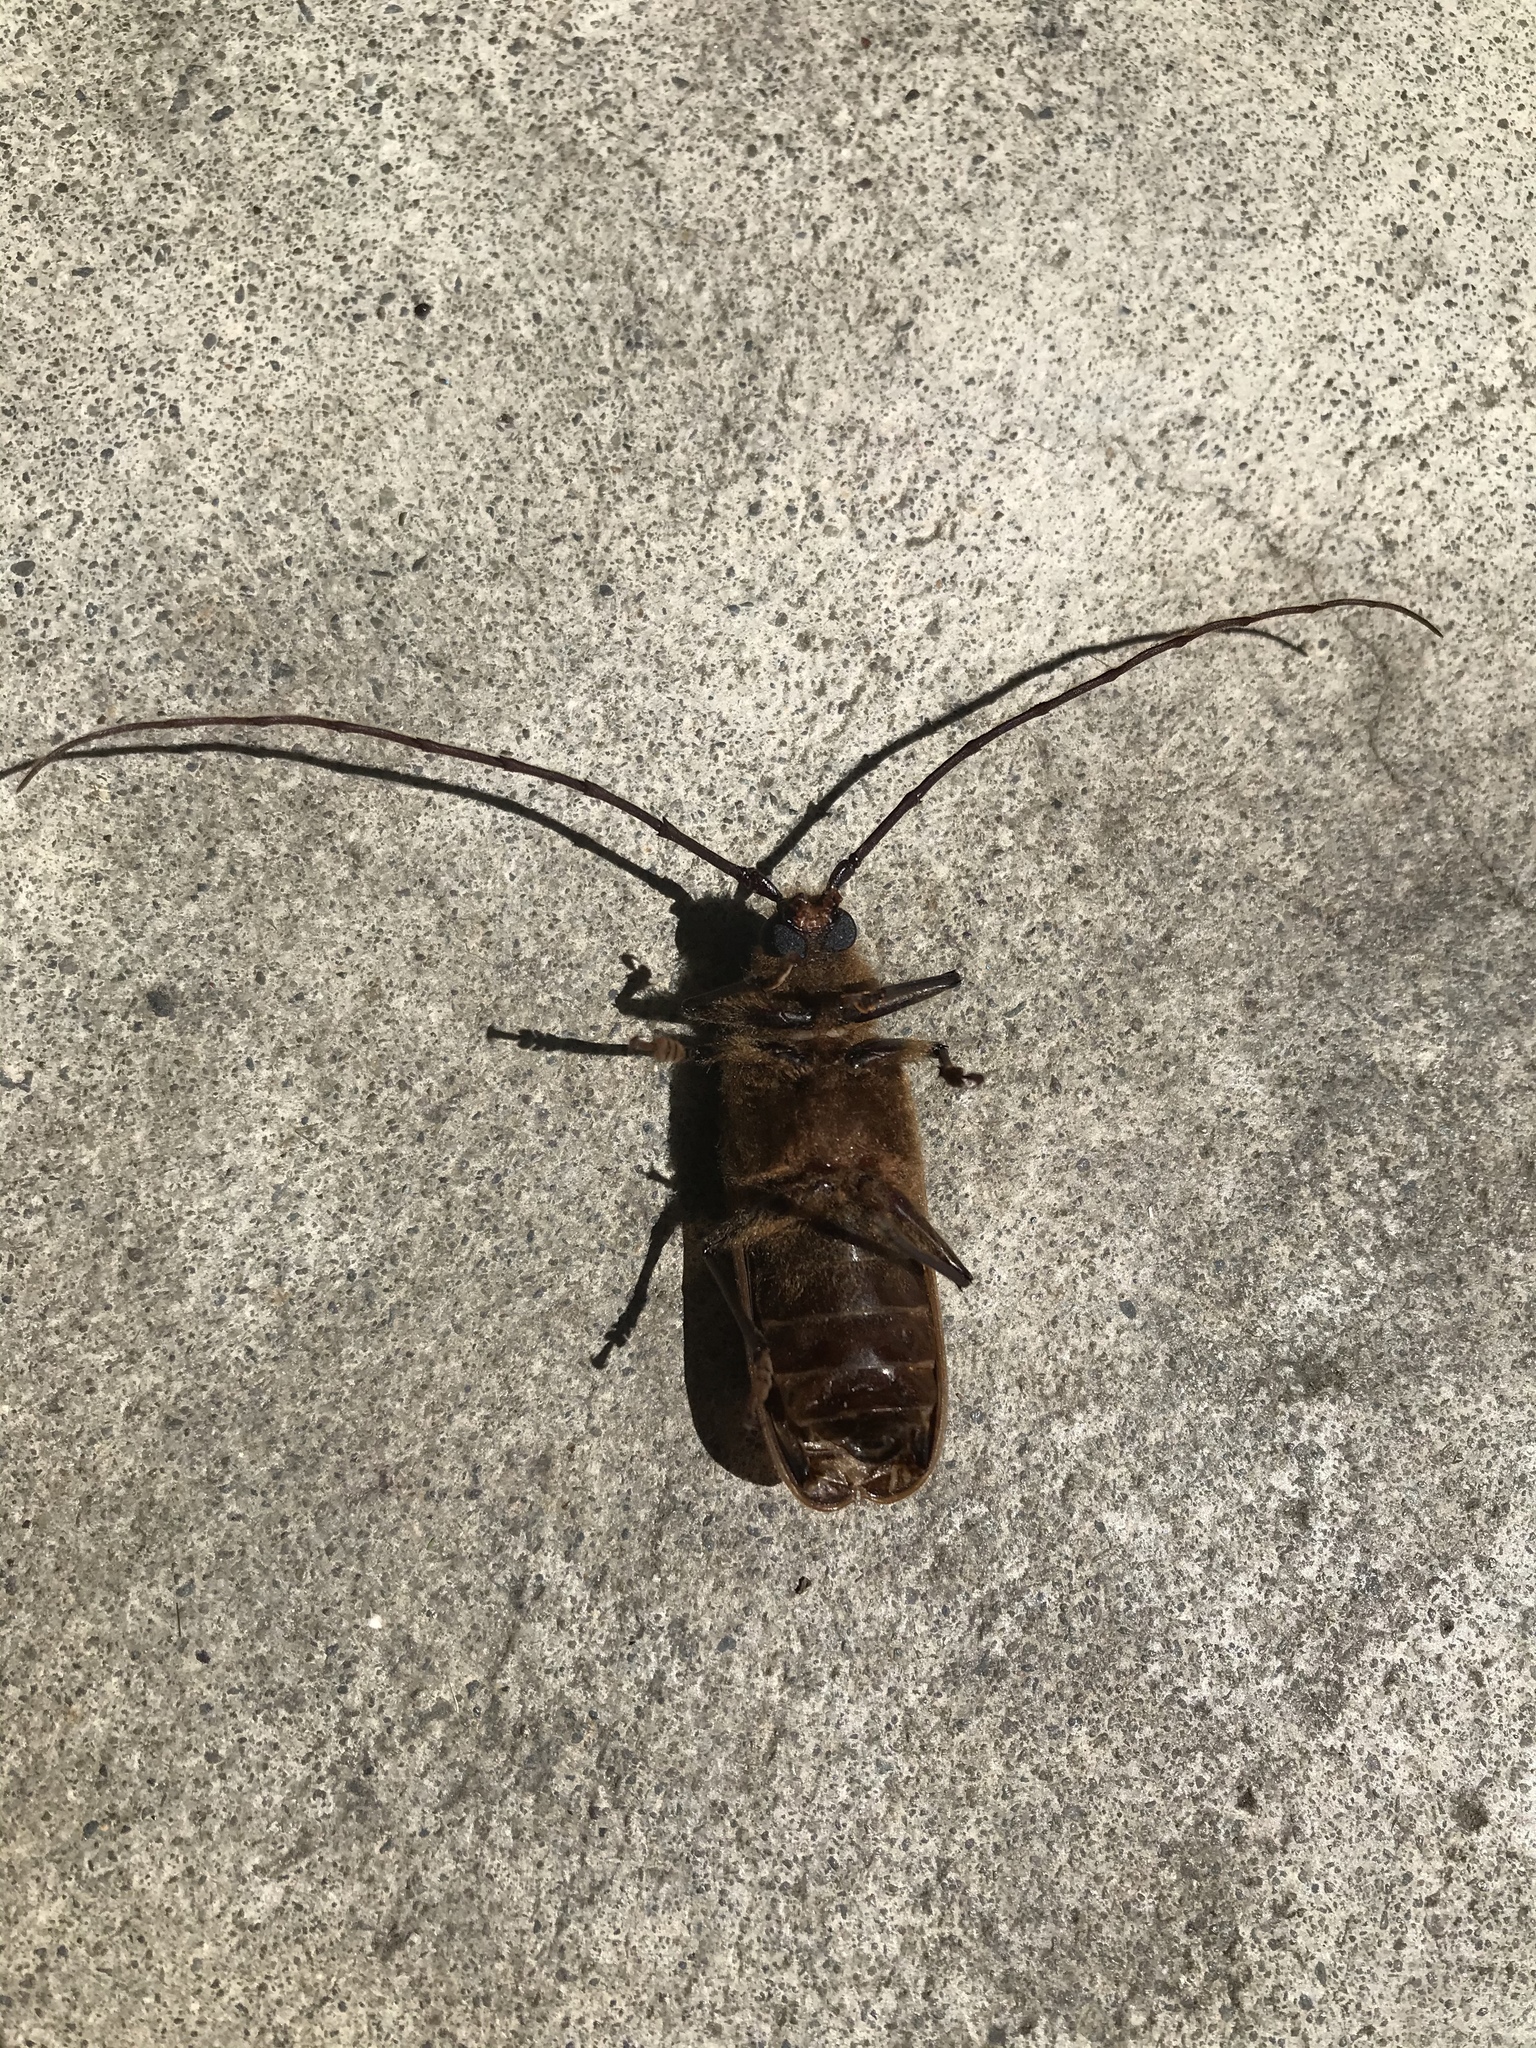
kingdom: Animalia
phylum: Arthropoda
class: Insecta
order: Coleoptera
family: Cerambycidae
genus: Prionoplus
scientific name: Prionoplus reticularis
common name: Huhu beetle
